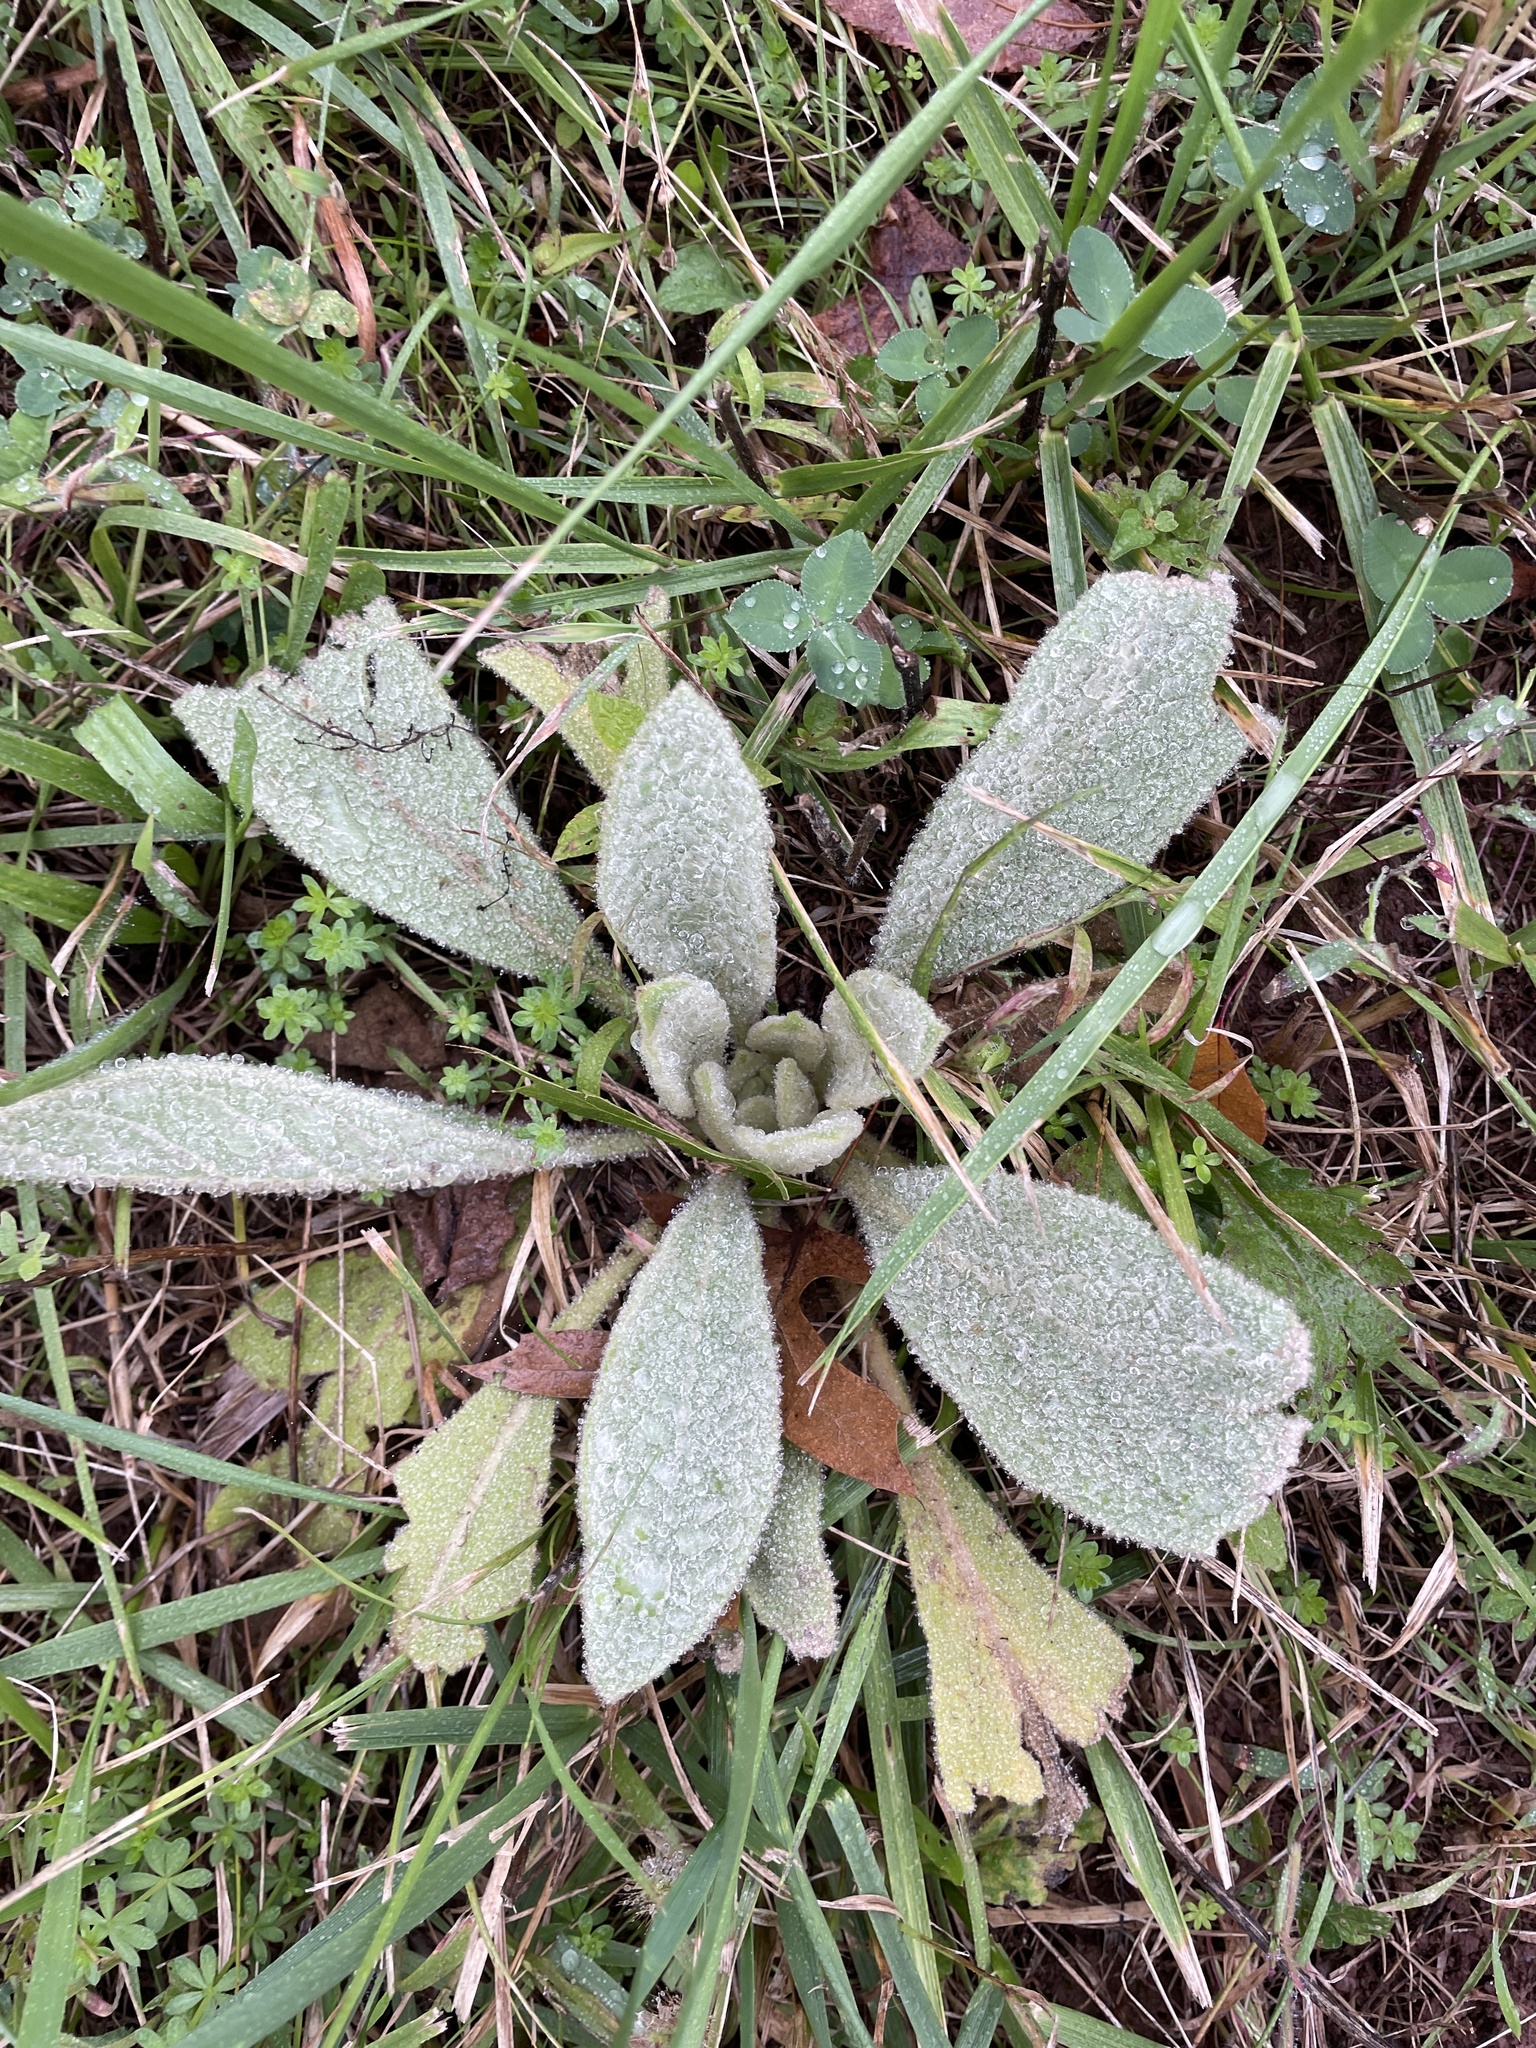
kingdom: Plantae
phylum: Tracheophyta
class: Magnoliopsida
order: Lamiales
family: Scrophulariaceae
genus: Verbascum
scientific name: Verbascum thapsus
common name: Common mullein
